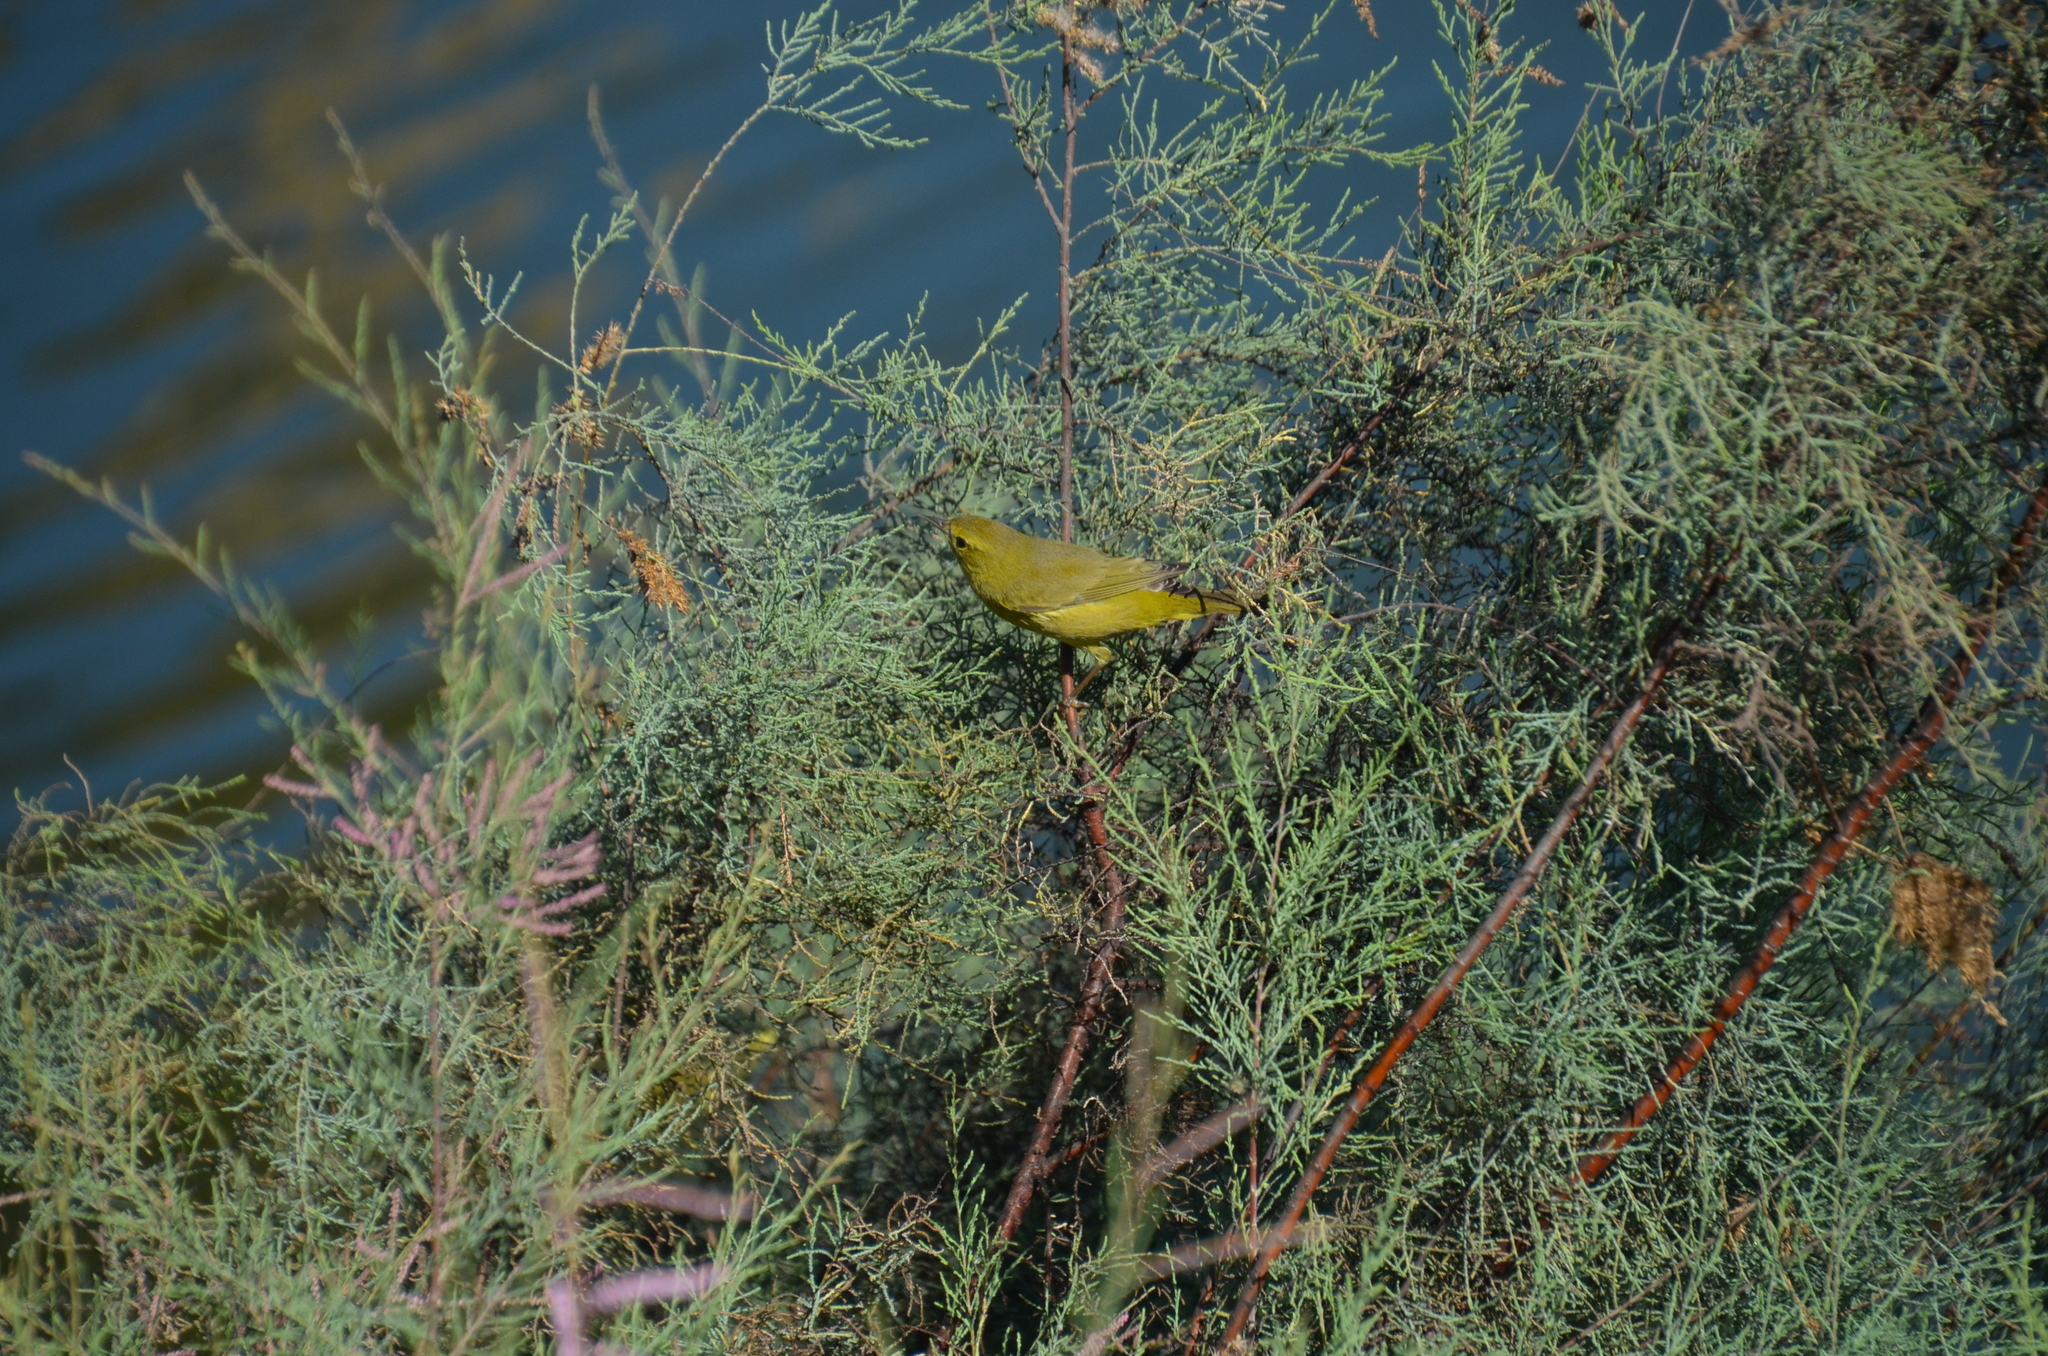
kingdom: Animalia
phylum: Chordata
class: Aves
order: Passeriformes
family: Parulidae
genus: Leiothlypis
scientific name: Leiothlypis celata
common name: Orange-crowned warbler
